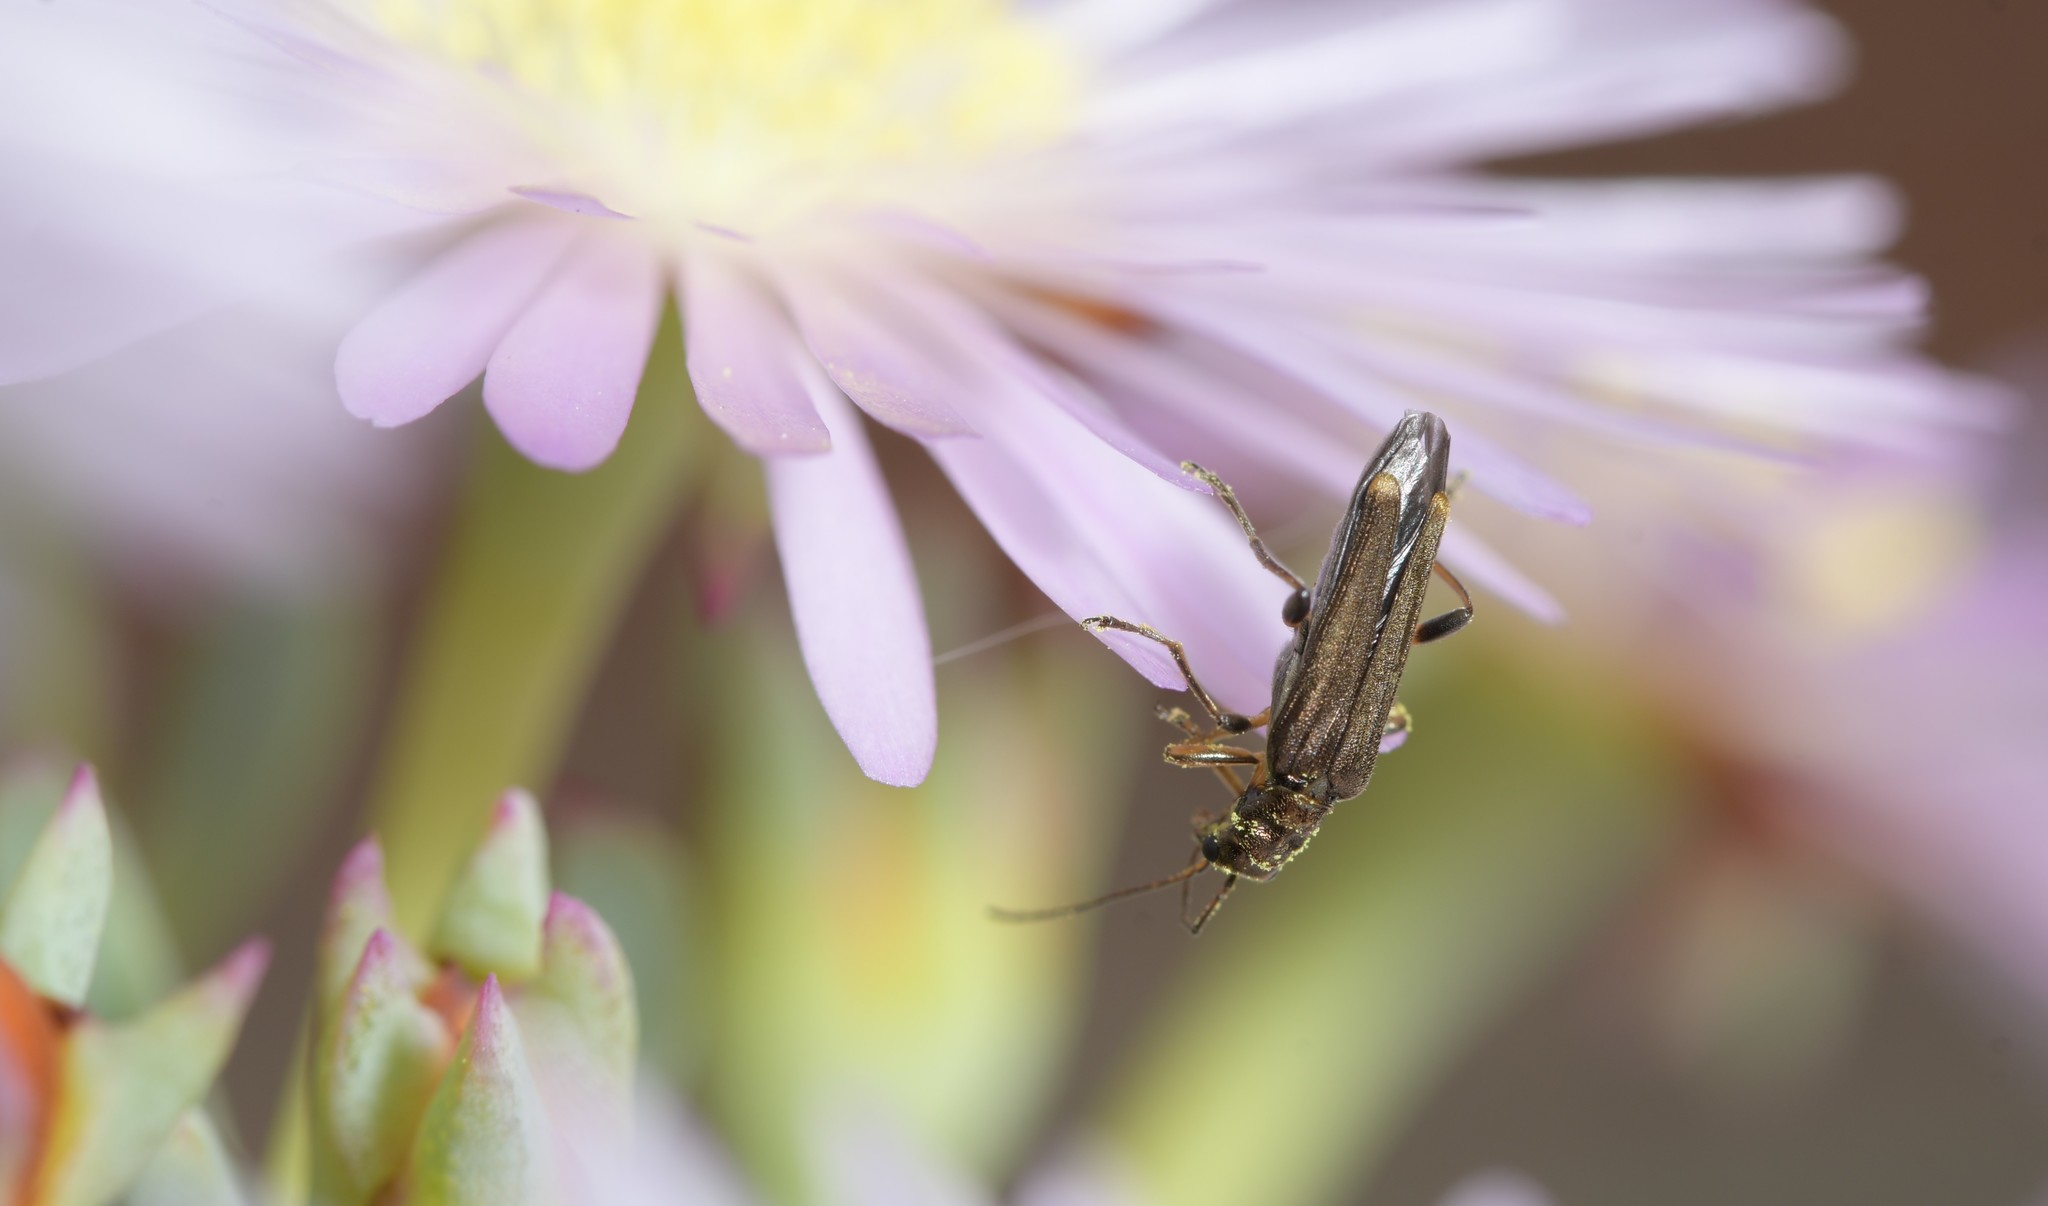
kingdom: Animalia
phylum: Arthropoda
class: Insecta
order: Coleoptera
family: Oedemeridae
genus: Oedemera
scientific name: Oedemera barbara
